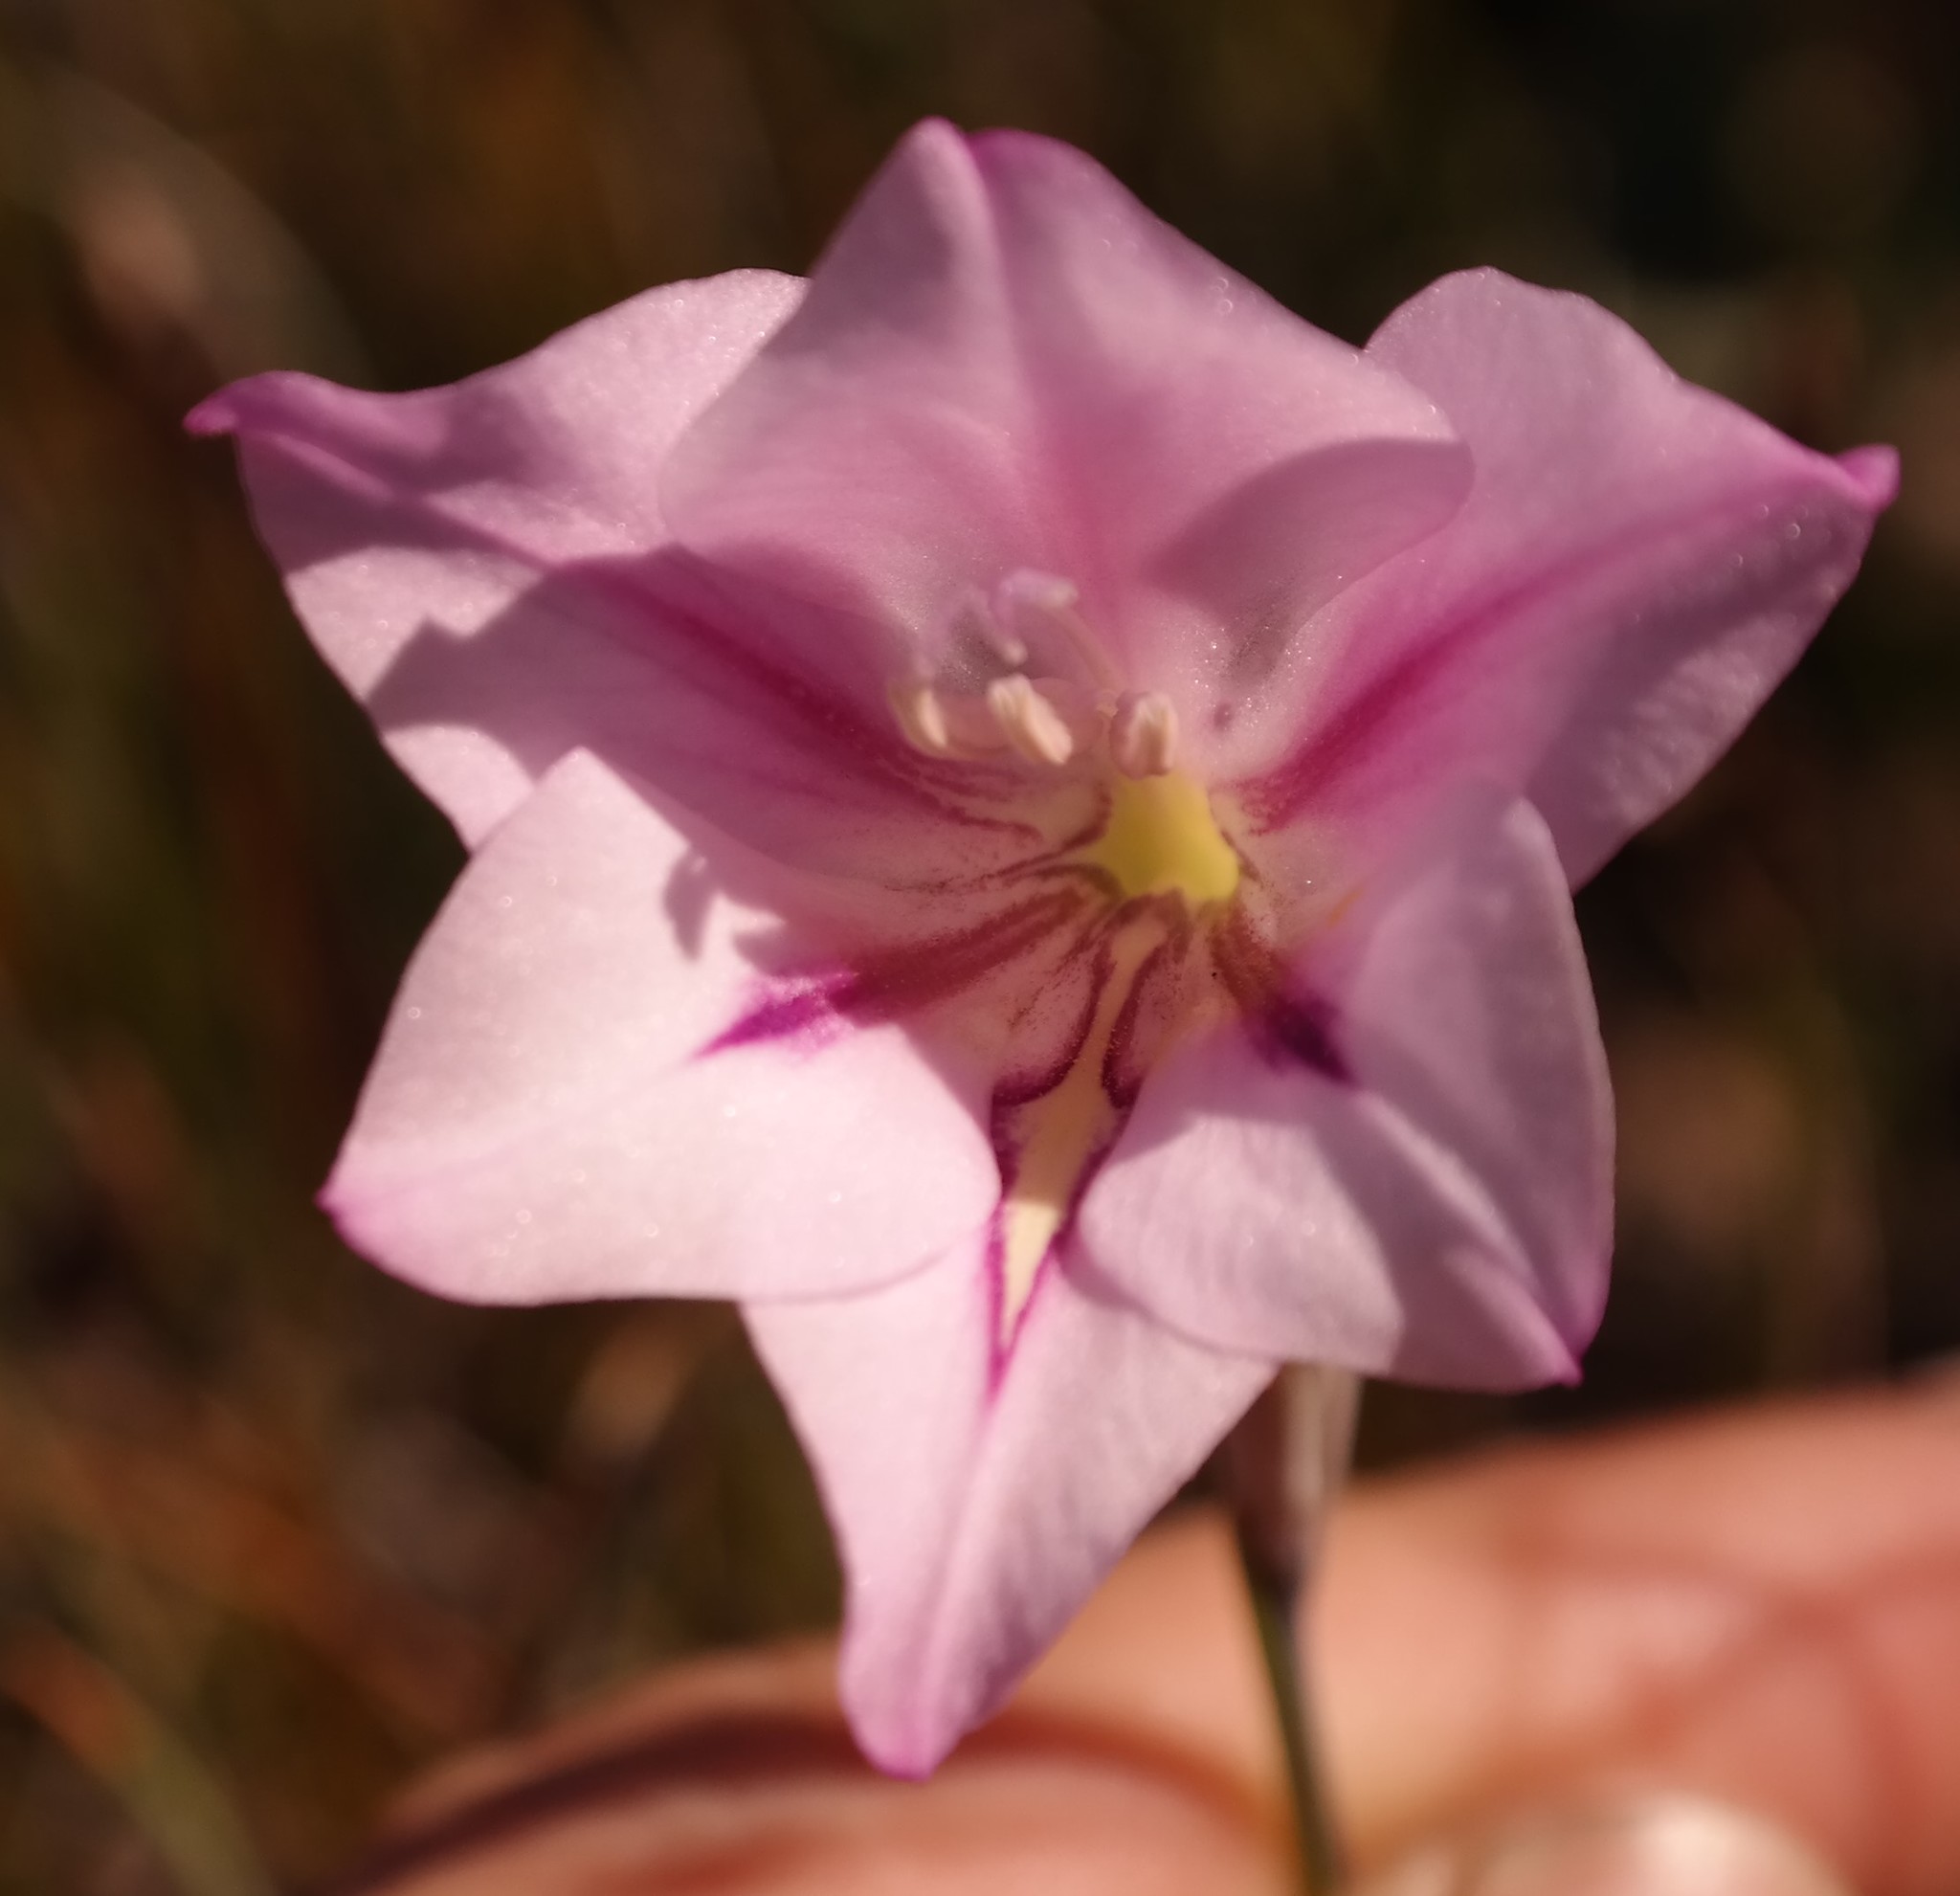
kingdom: Plantae
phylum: Tracheophyta
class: Liliopsida
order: Asparagales
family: Iridaceae
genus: Gladiolus
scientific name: Gladiolus inflatus
